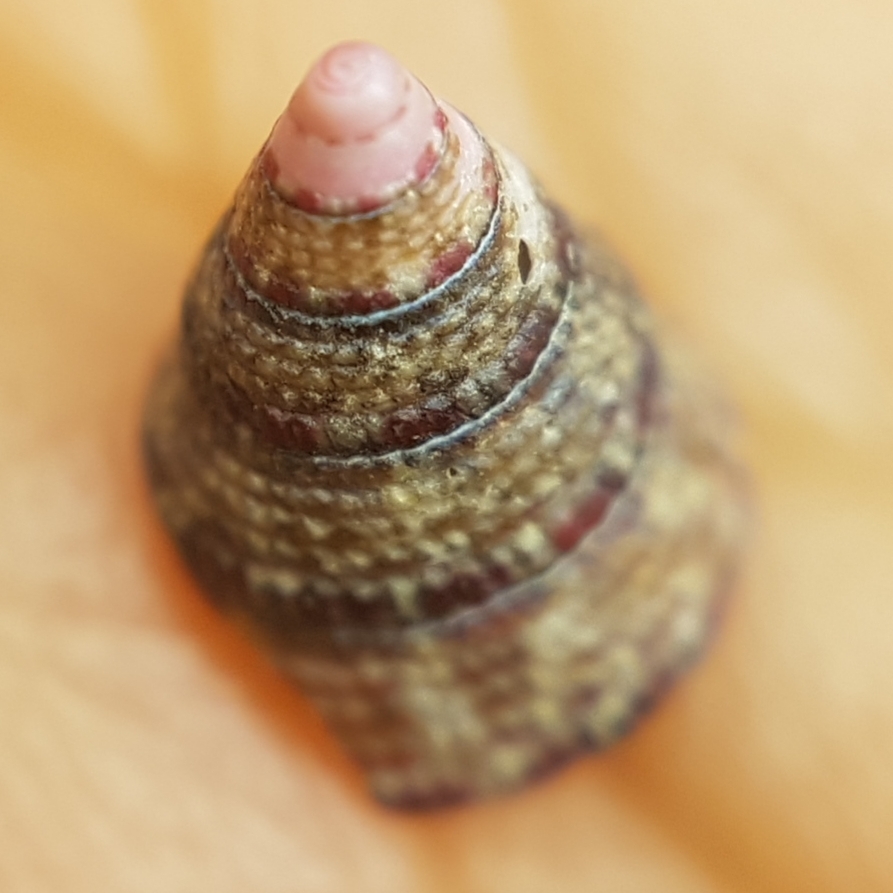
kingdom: Animalia
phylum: Mollusca
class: Gastropoda
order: Trochida
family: Trochidae
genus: Jujubinus
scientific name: Jujubinus exasperatus
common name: Rough top shell
